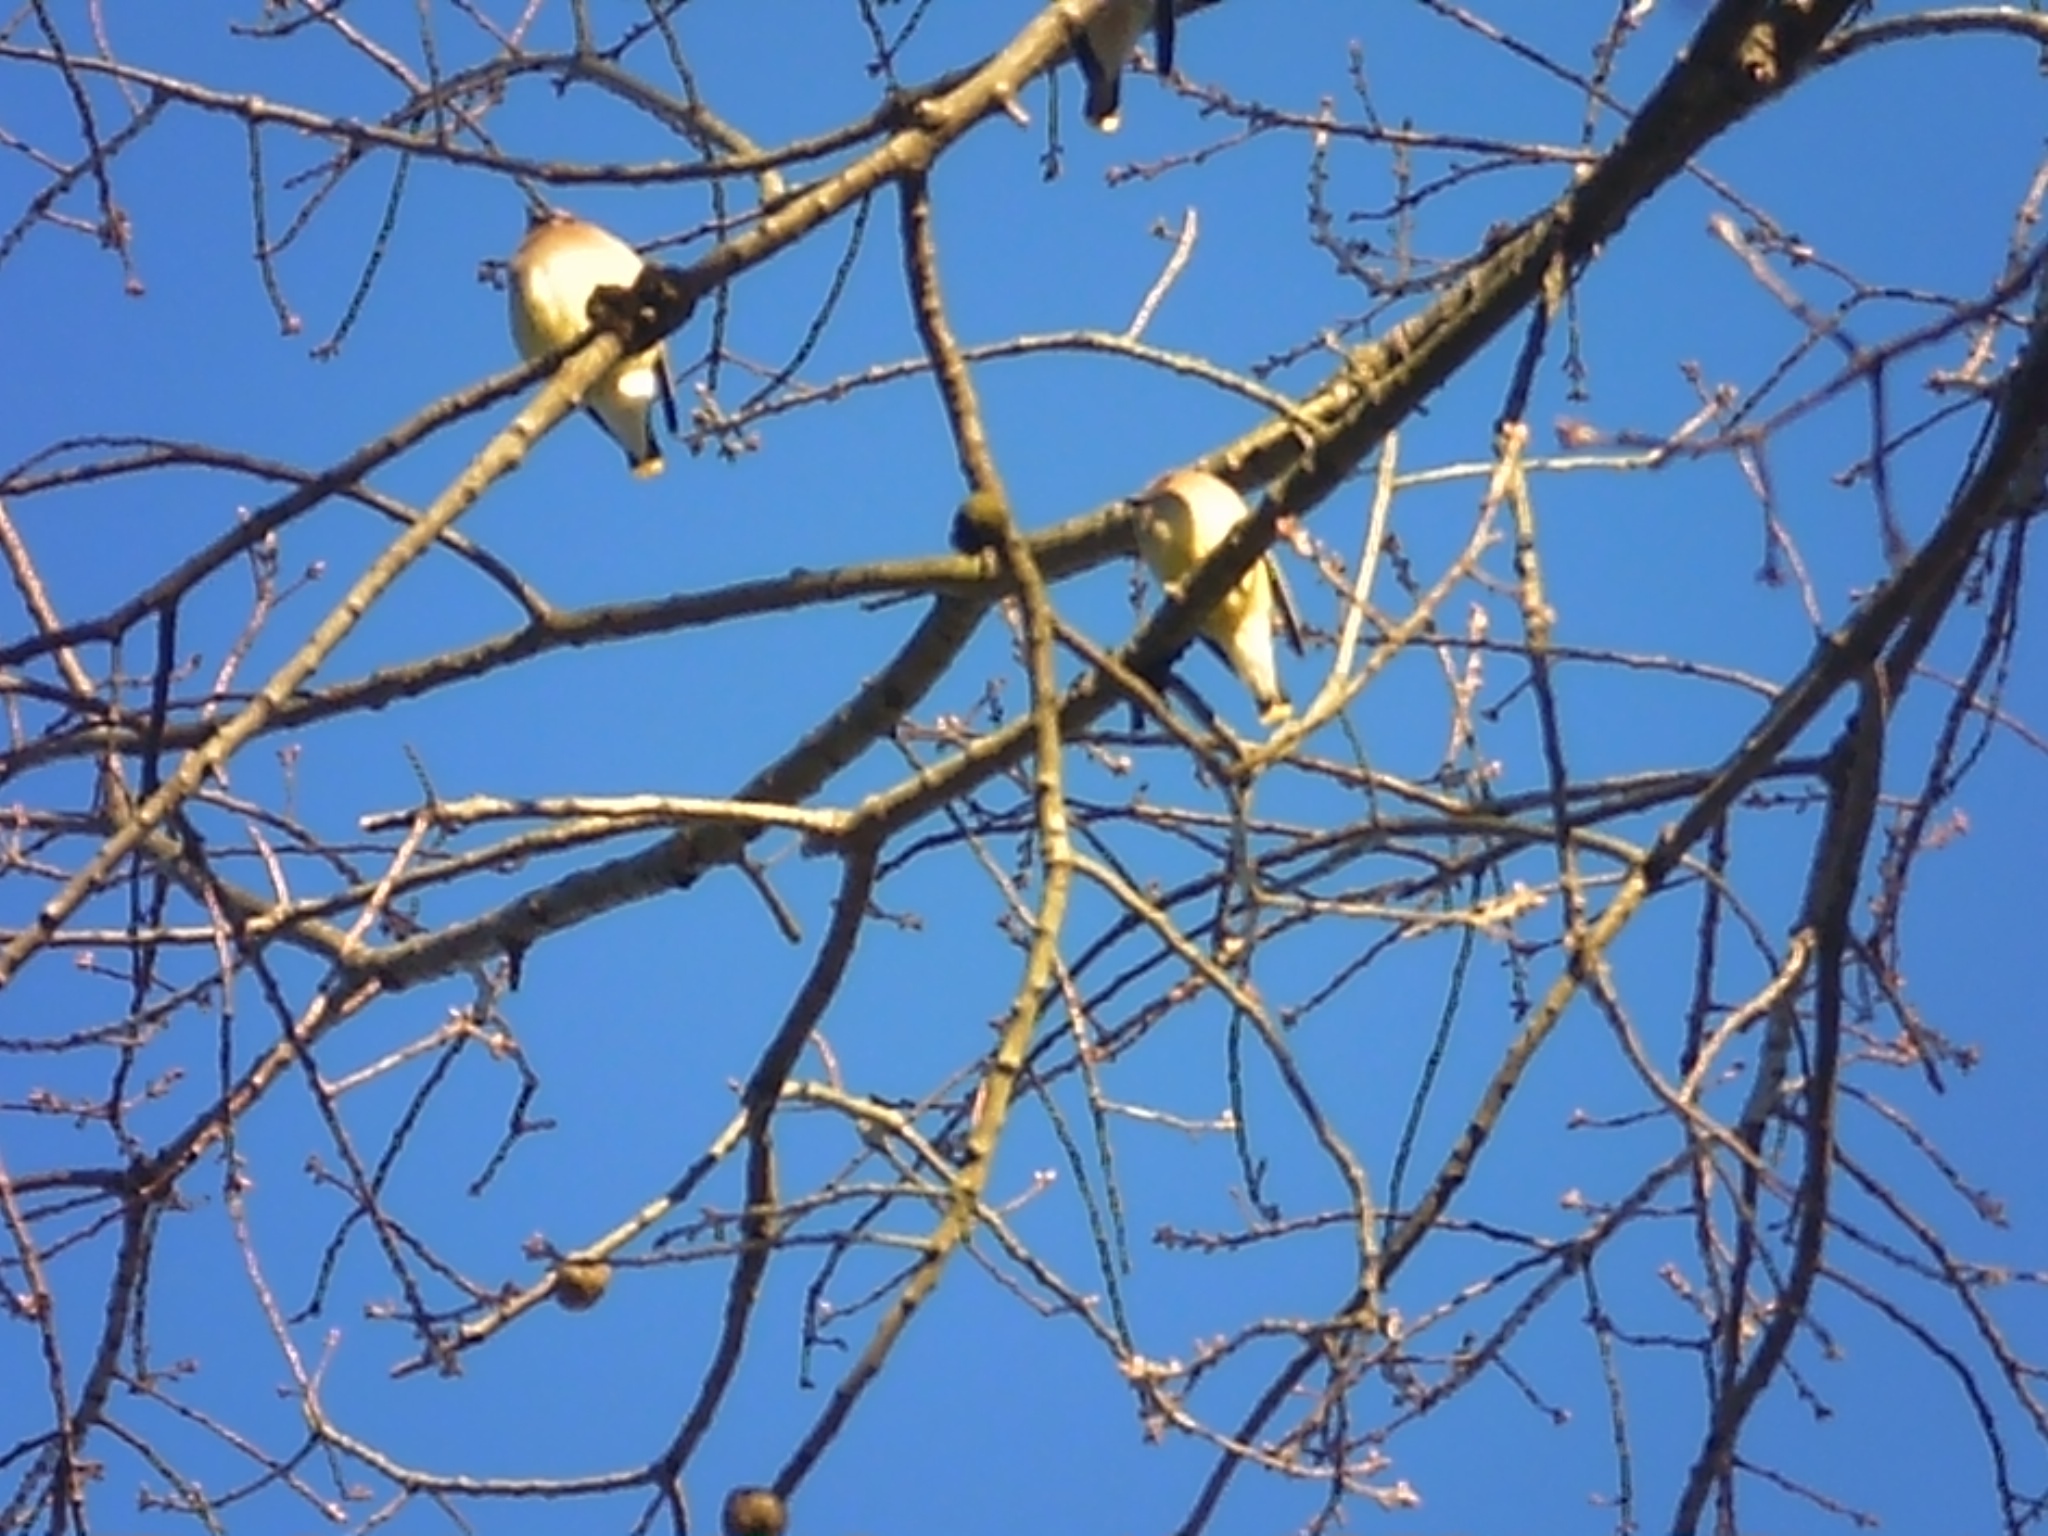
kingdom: Animalia
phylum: Chordata
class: Aves
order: Passeriformes
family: Bombycillidae
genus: Bombycilla
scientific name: Bombycilla cedrorum
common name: Cedar waxwing
